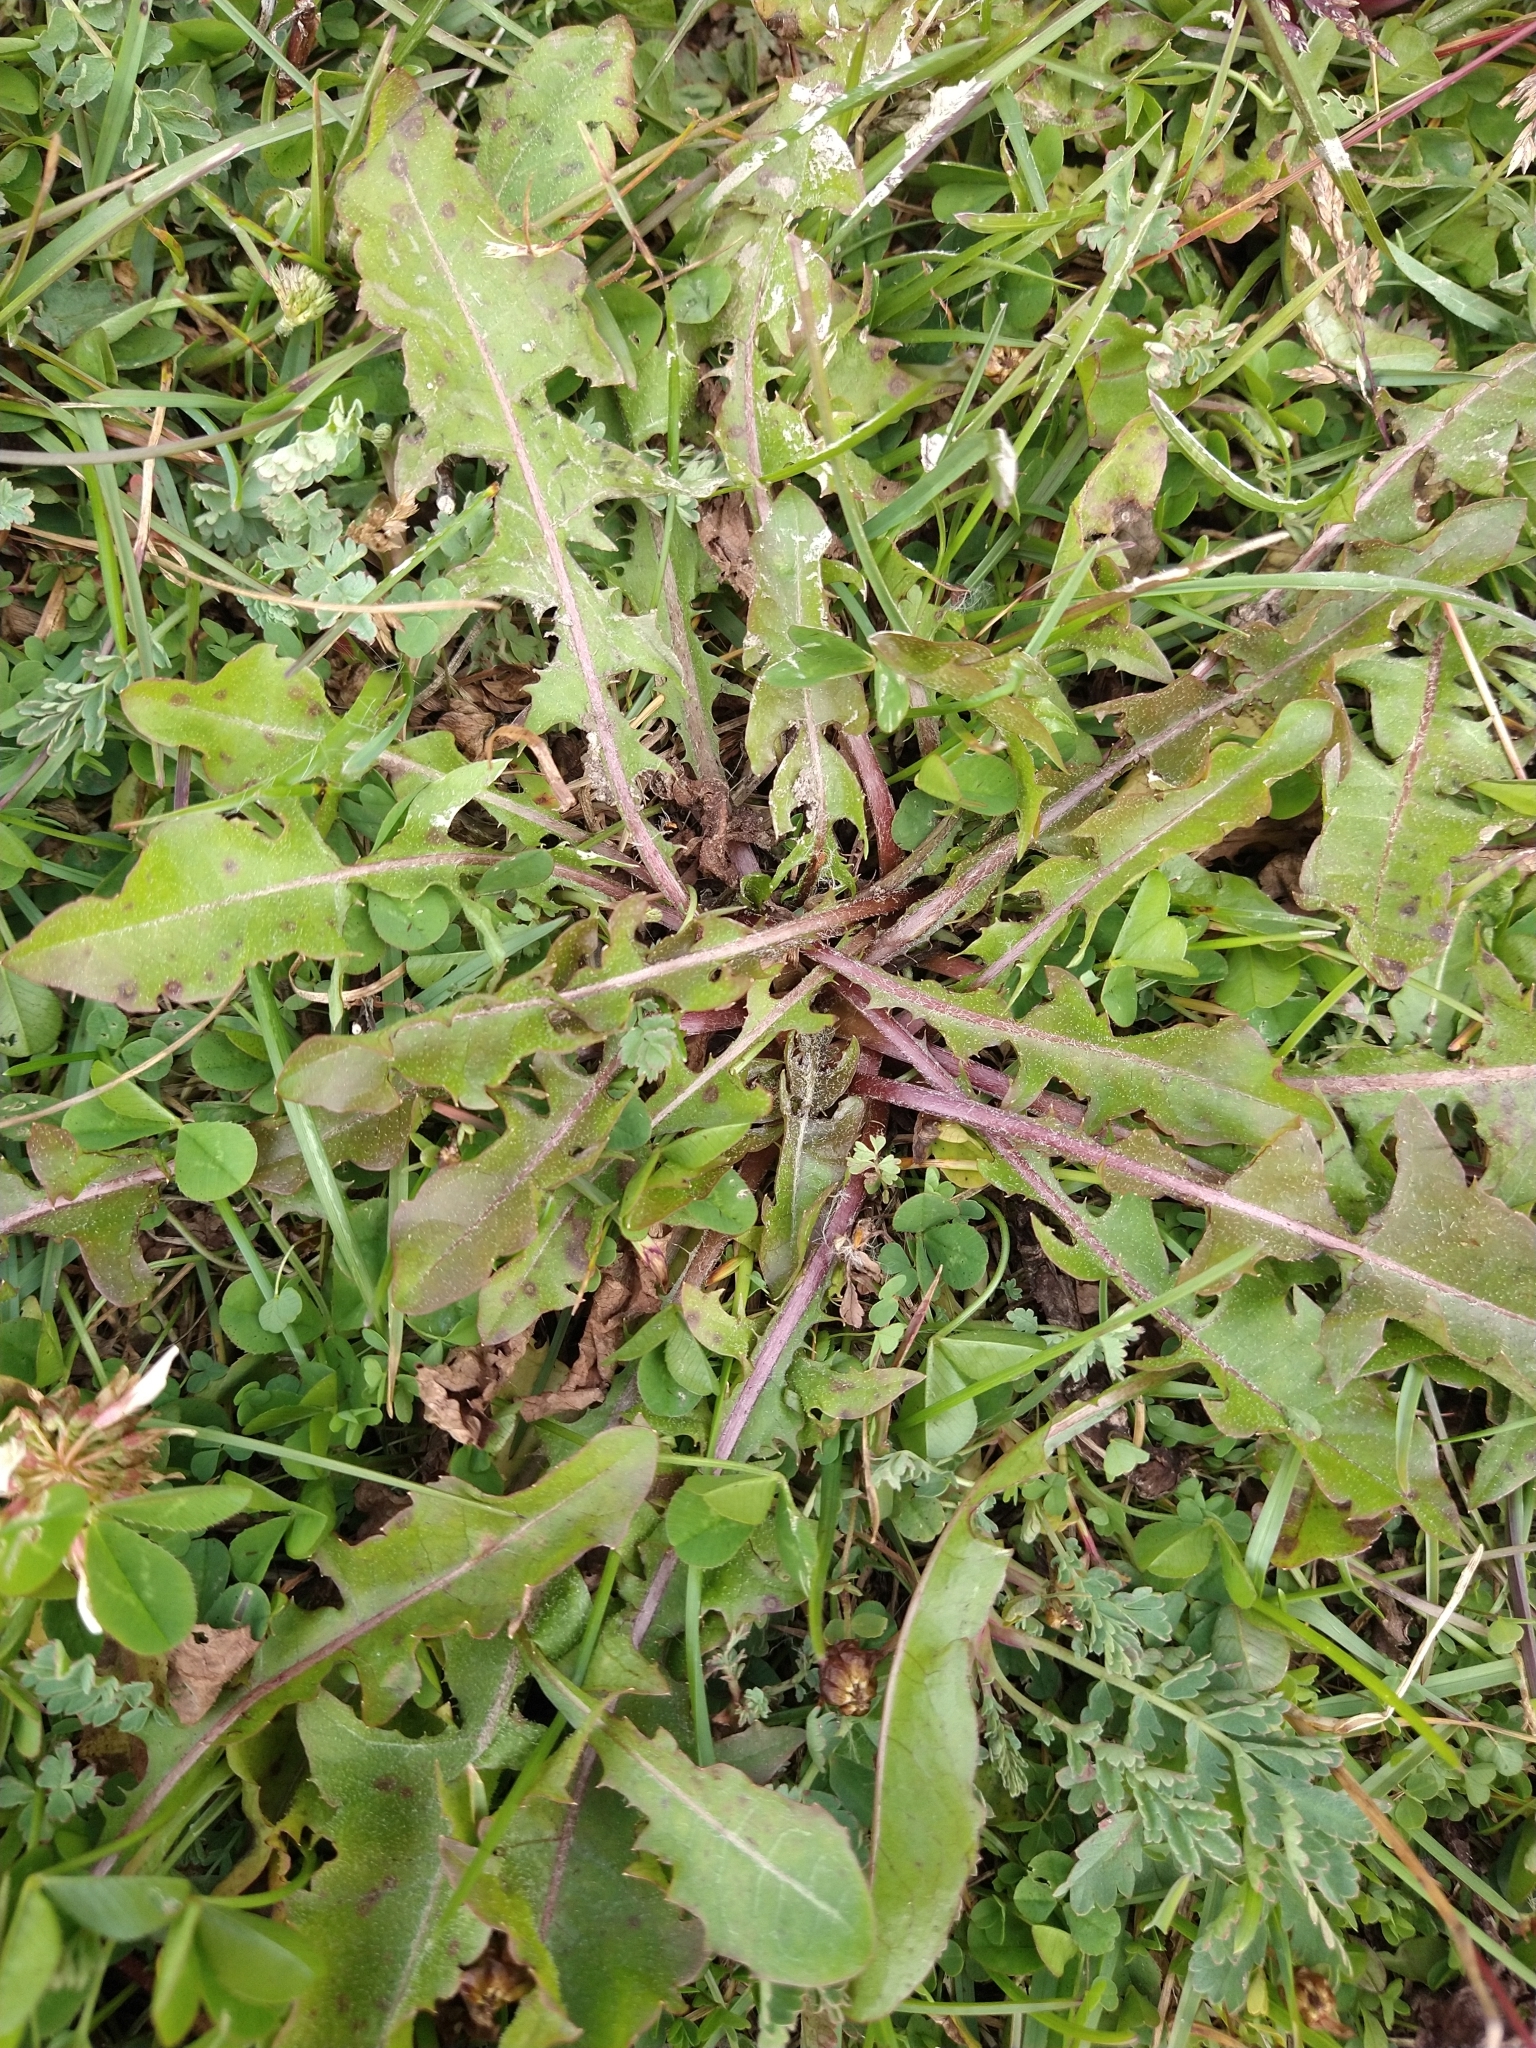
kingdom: Plantae
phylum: Tracheophyta
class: Magnoliopsida
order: Asterales
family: Asteraceae
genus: Taraxacum
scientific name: Taraxacum officinale
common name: Common dandelion
